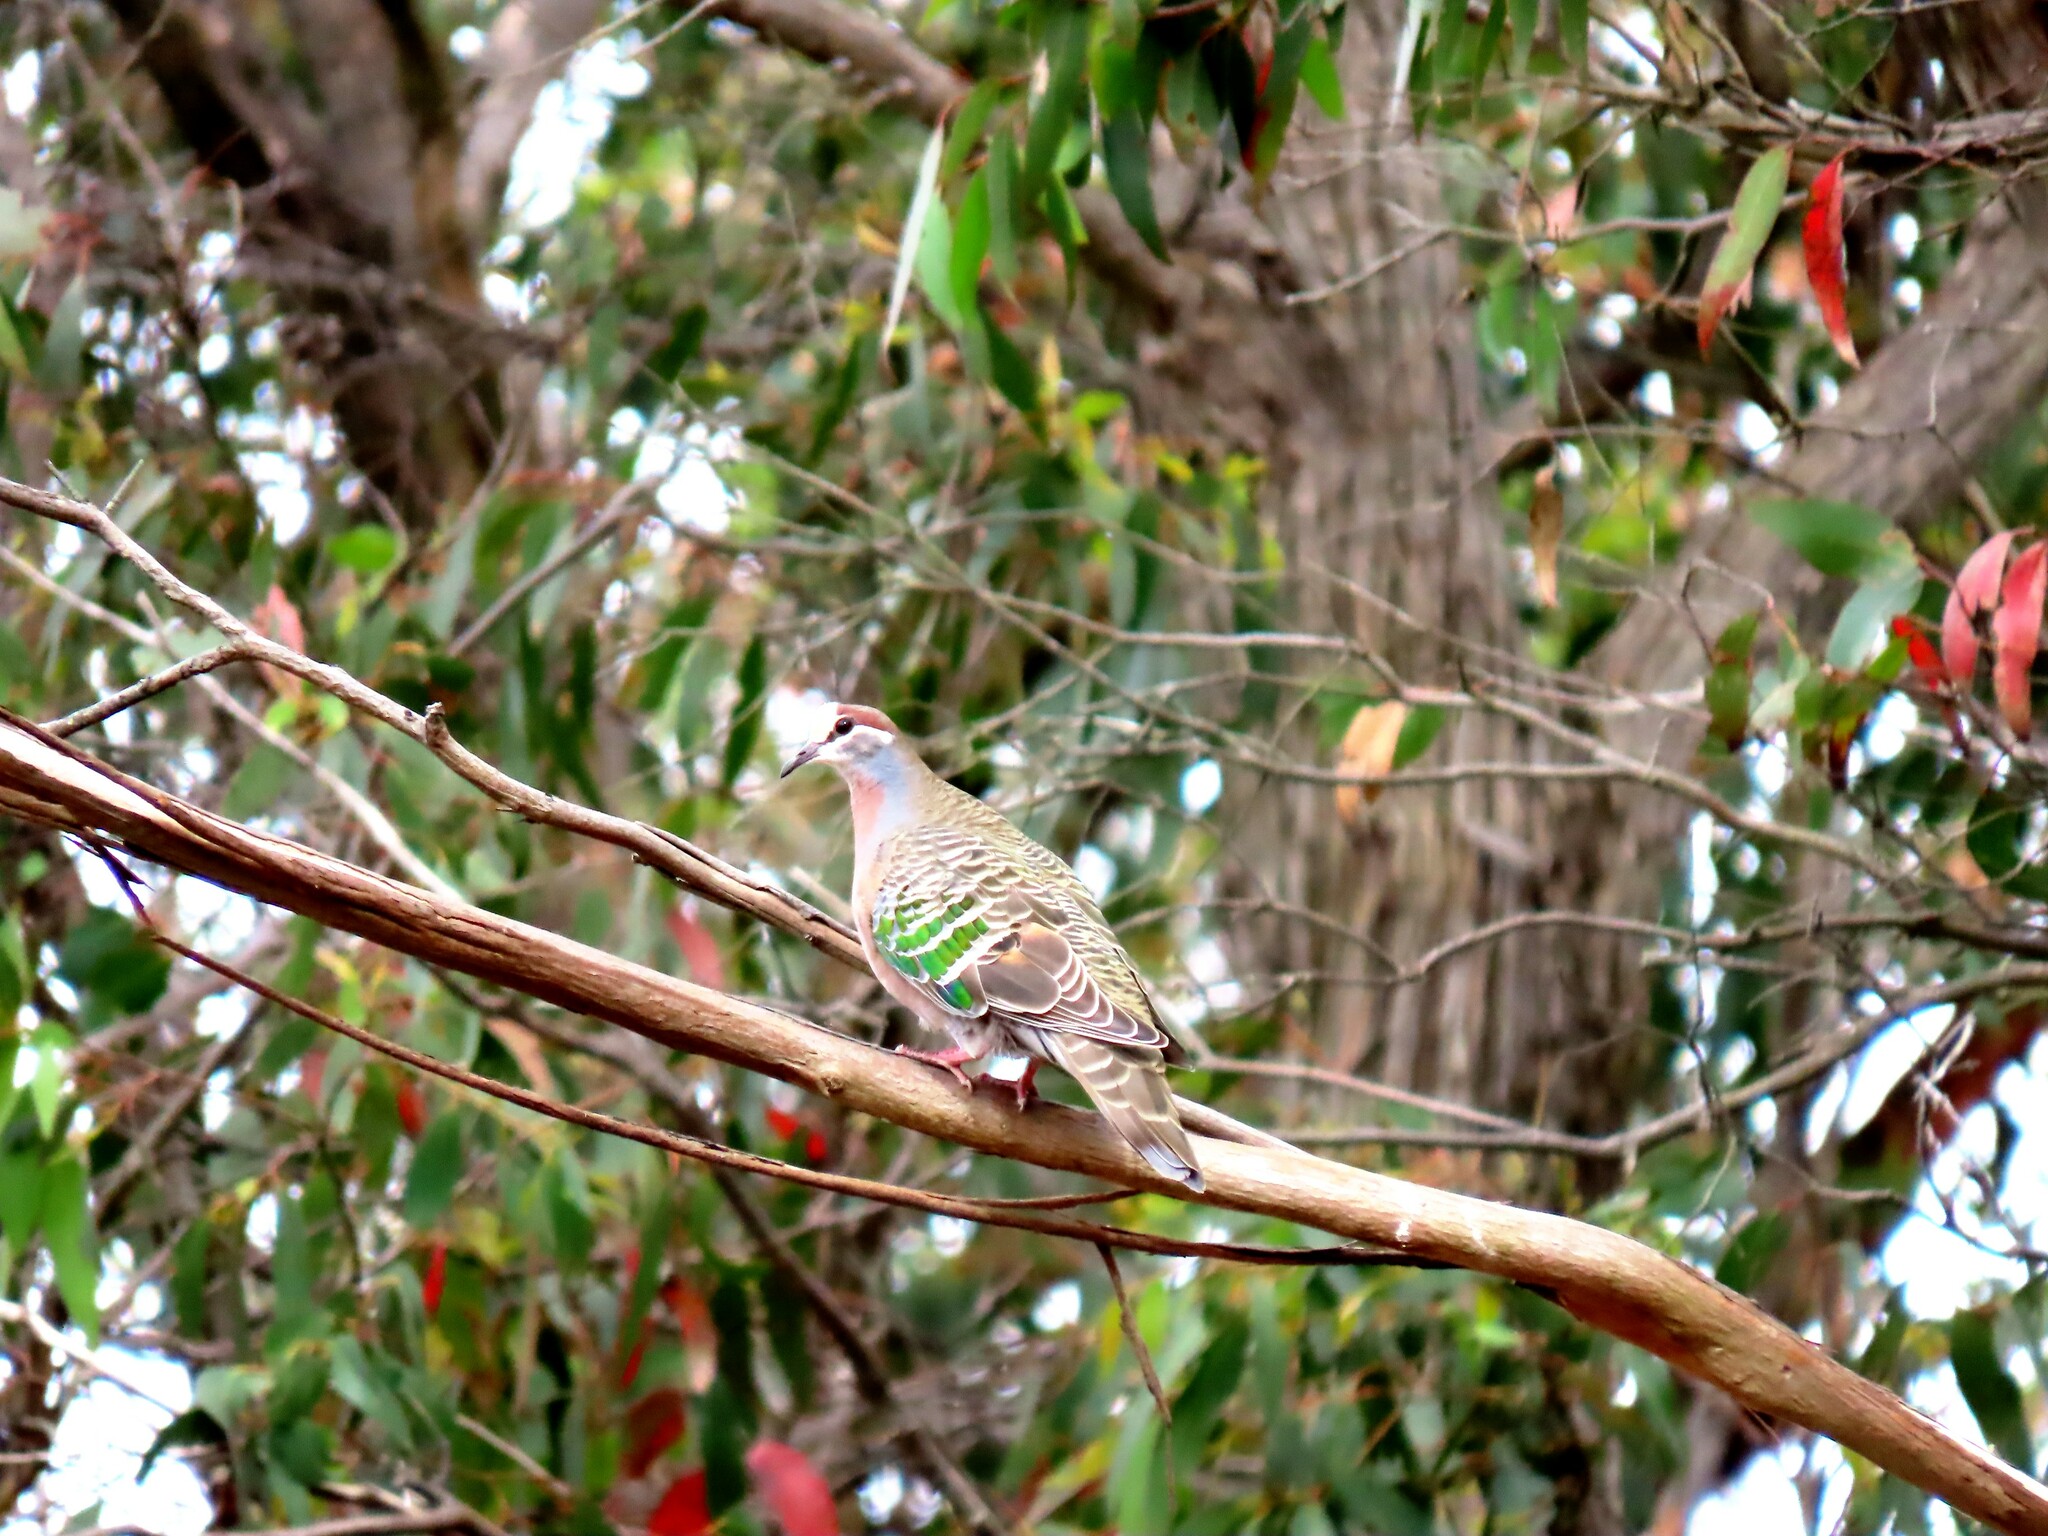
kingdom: Animalia
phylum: Chordata
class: Aves
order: Columbiformes
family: Columbidae
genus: Phaps
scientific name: Phaps chalcoptera
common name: Common bronzewing
